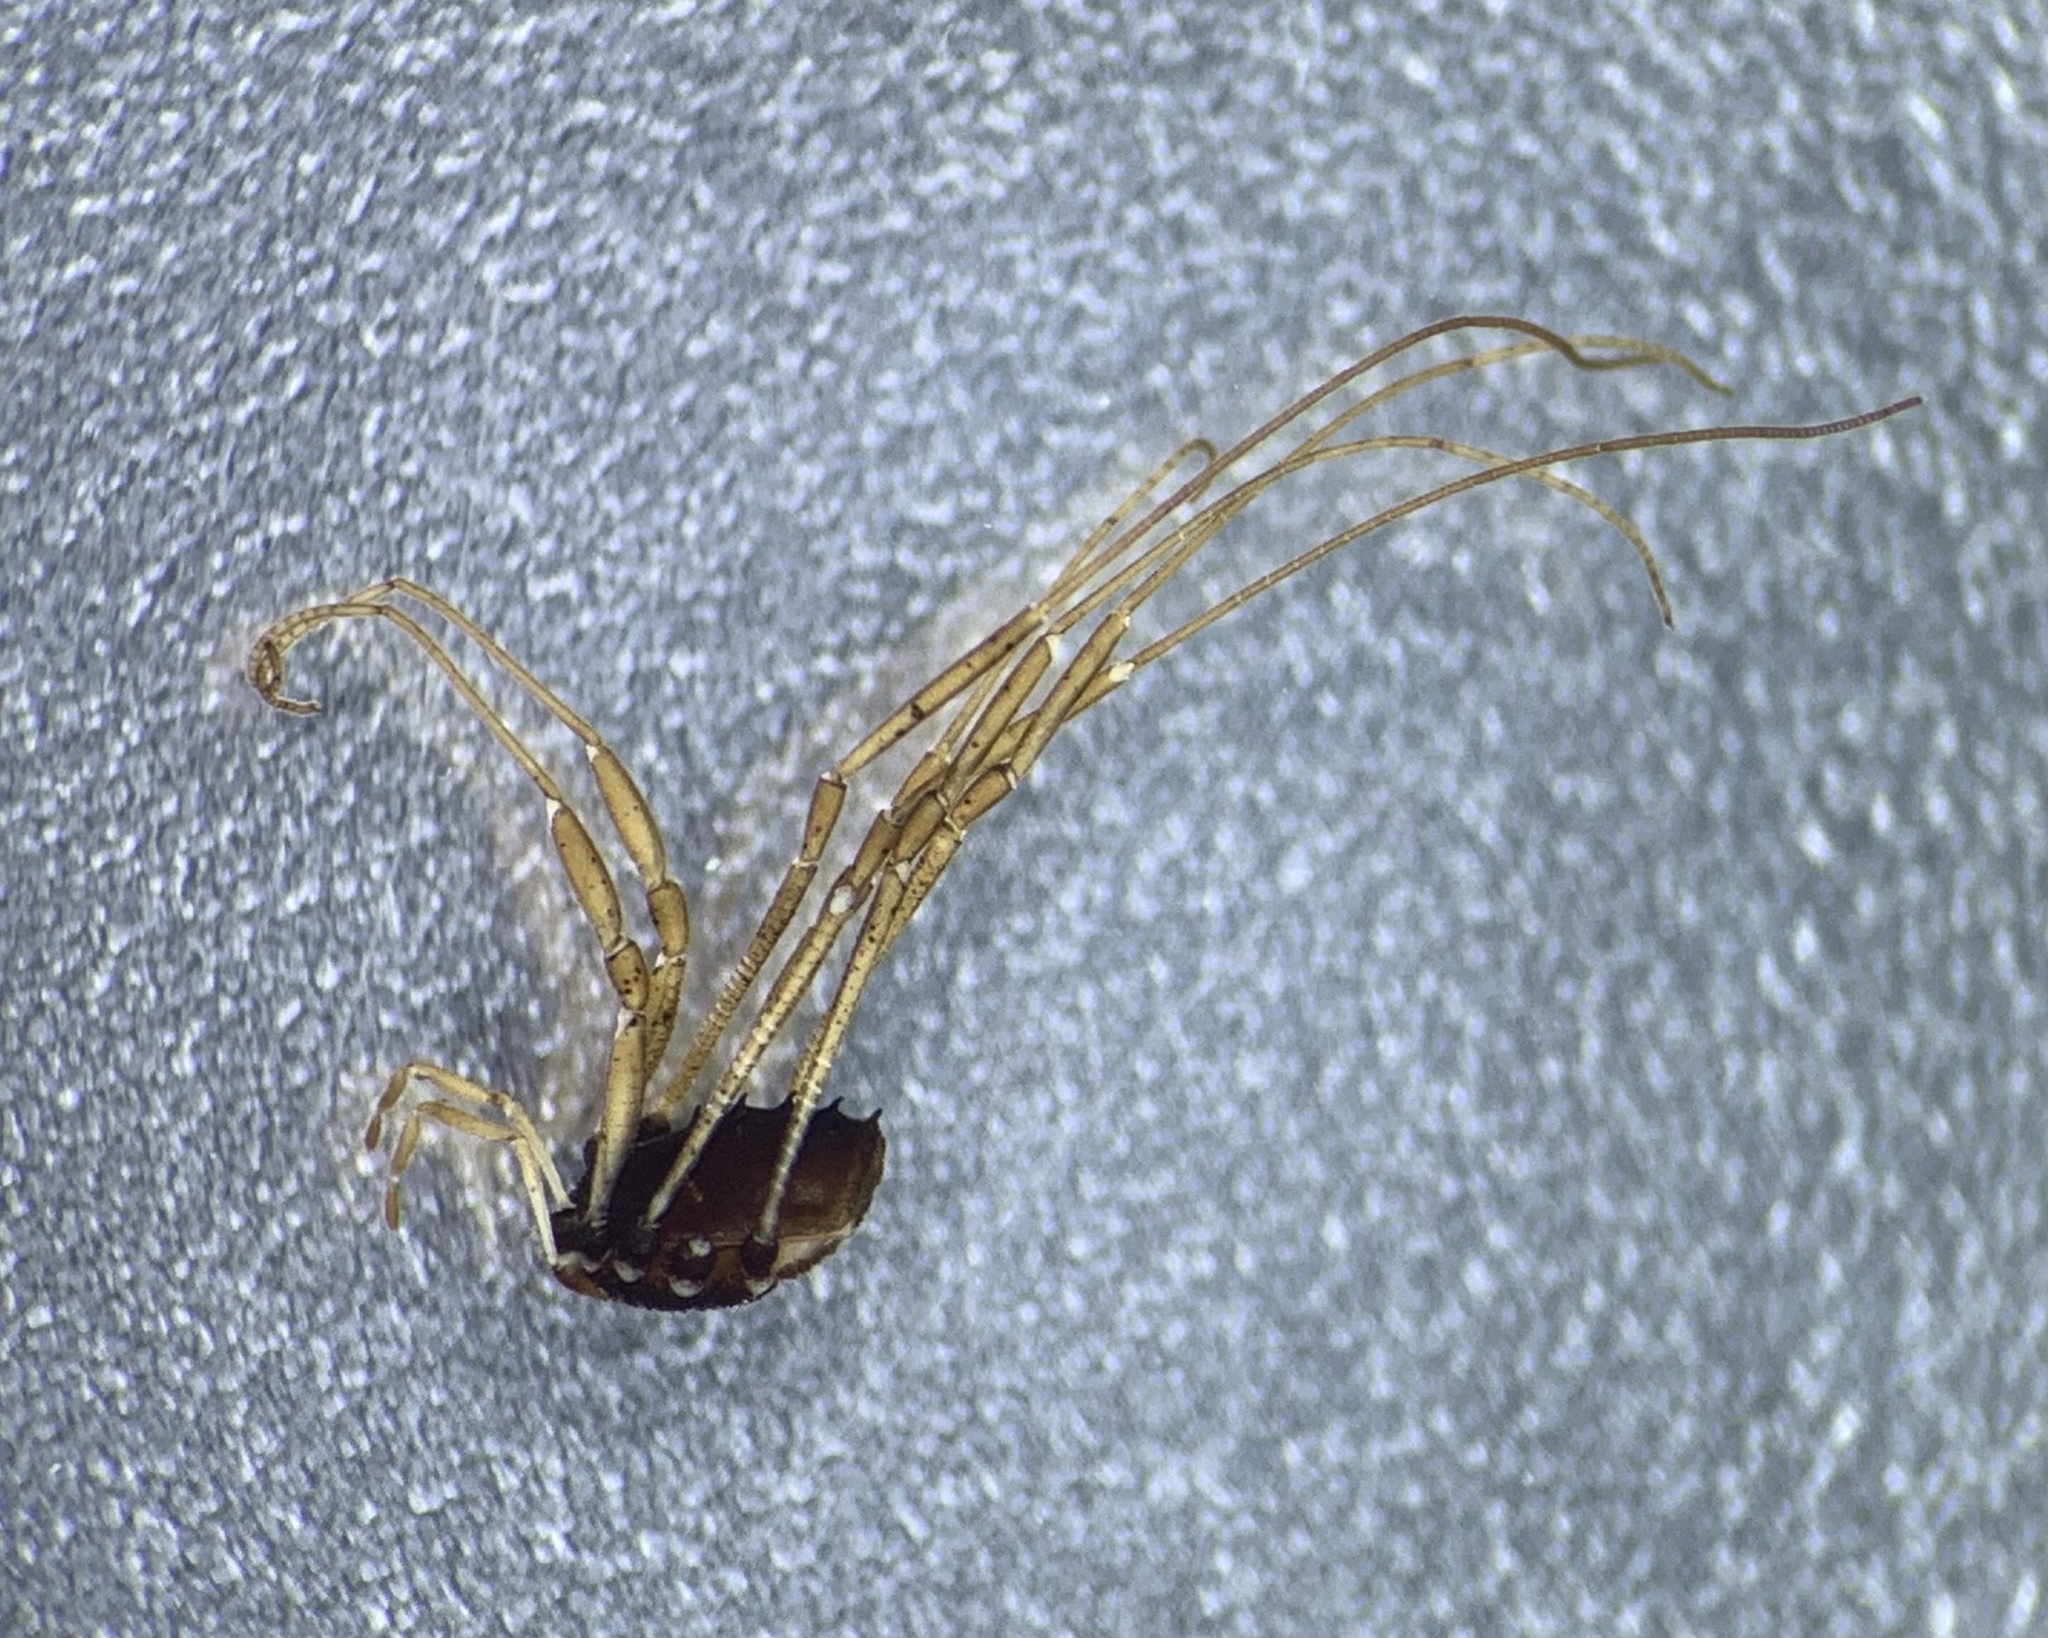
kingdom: Animalia
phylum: Arthropoda
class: Arachnida
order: Opiliones
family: Nemastomatidae
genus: Histricostoma
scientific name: Histricostoma dentipalpe
